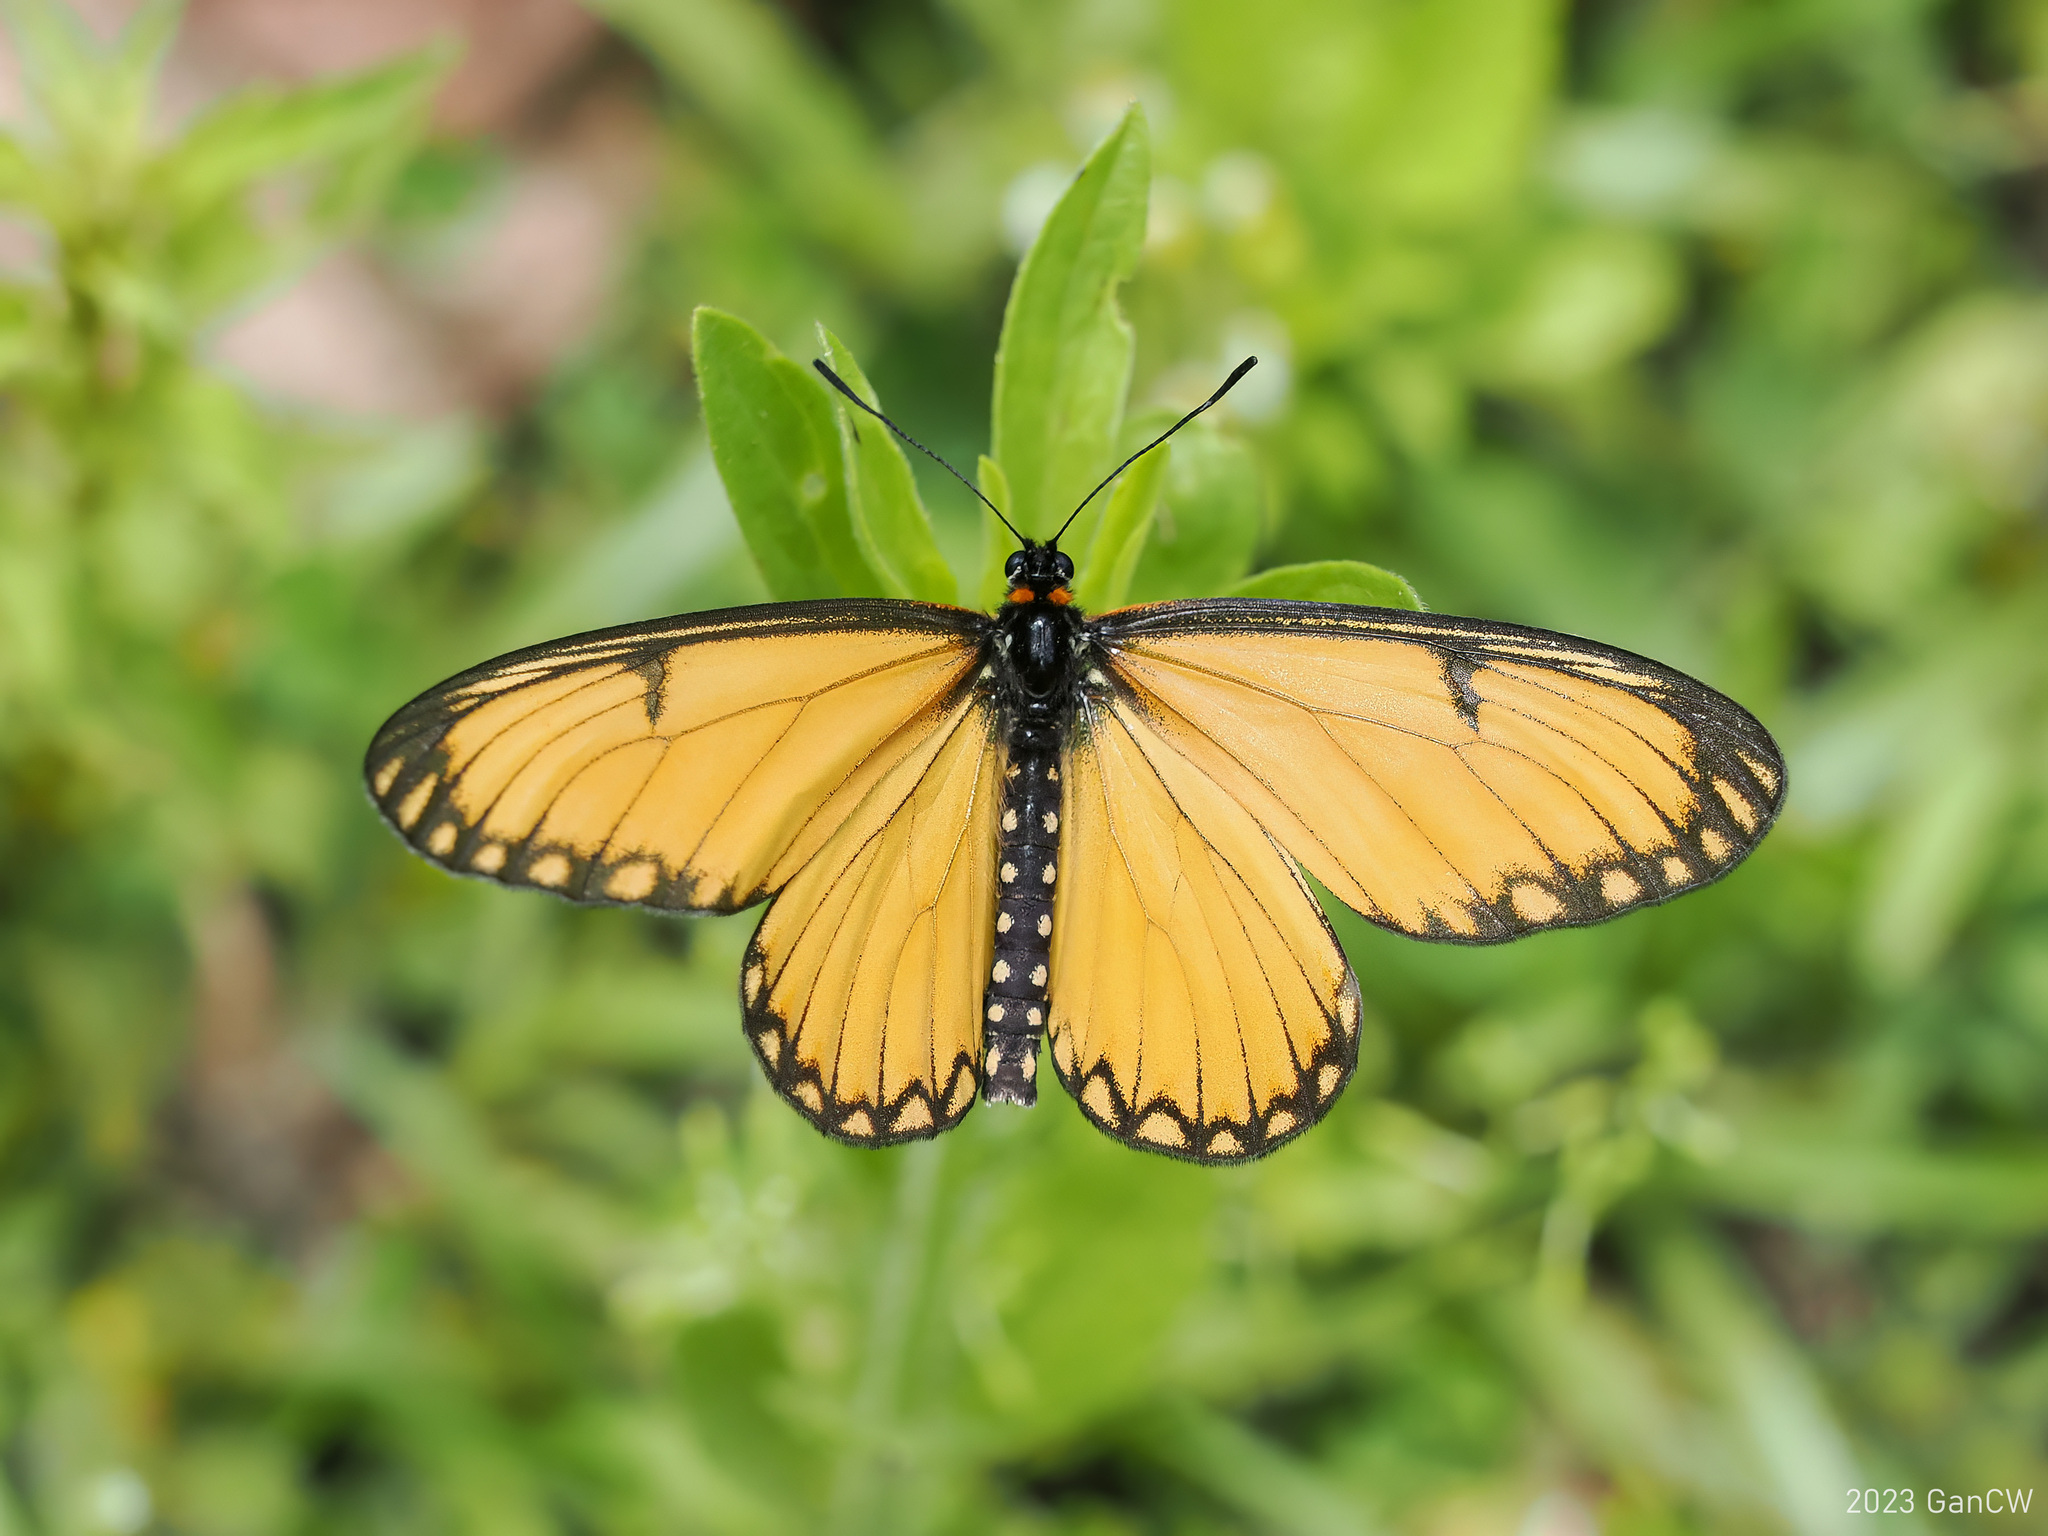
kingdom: Animalia
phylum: Arthropoda
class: Insecta
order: Lepidoptera
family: Nymphalidae
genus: Acraea
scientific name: Acraea Telchinia issoria
